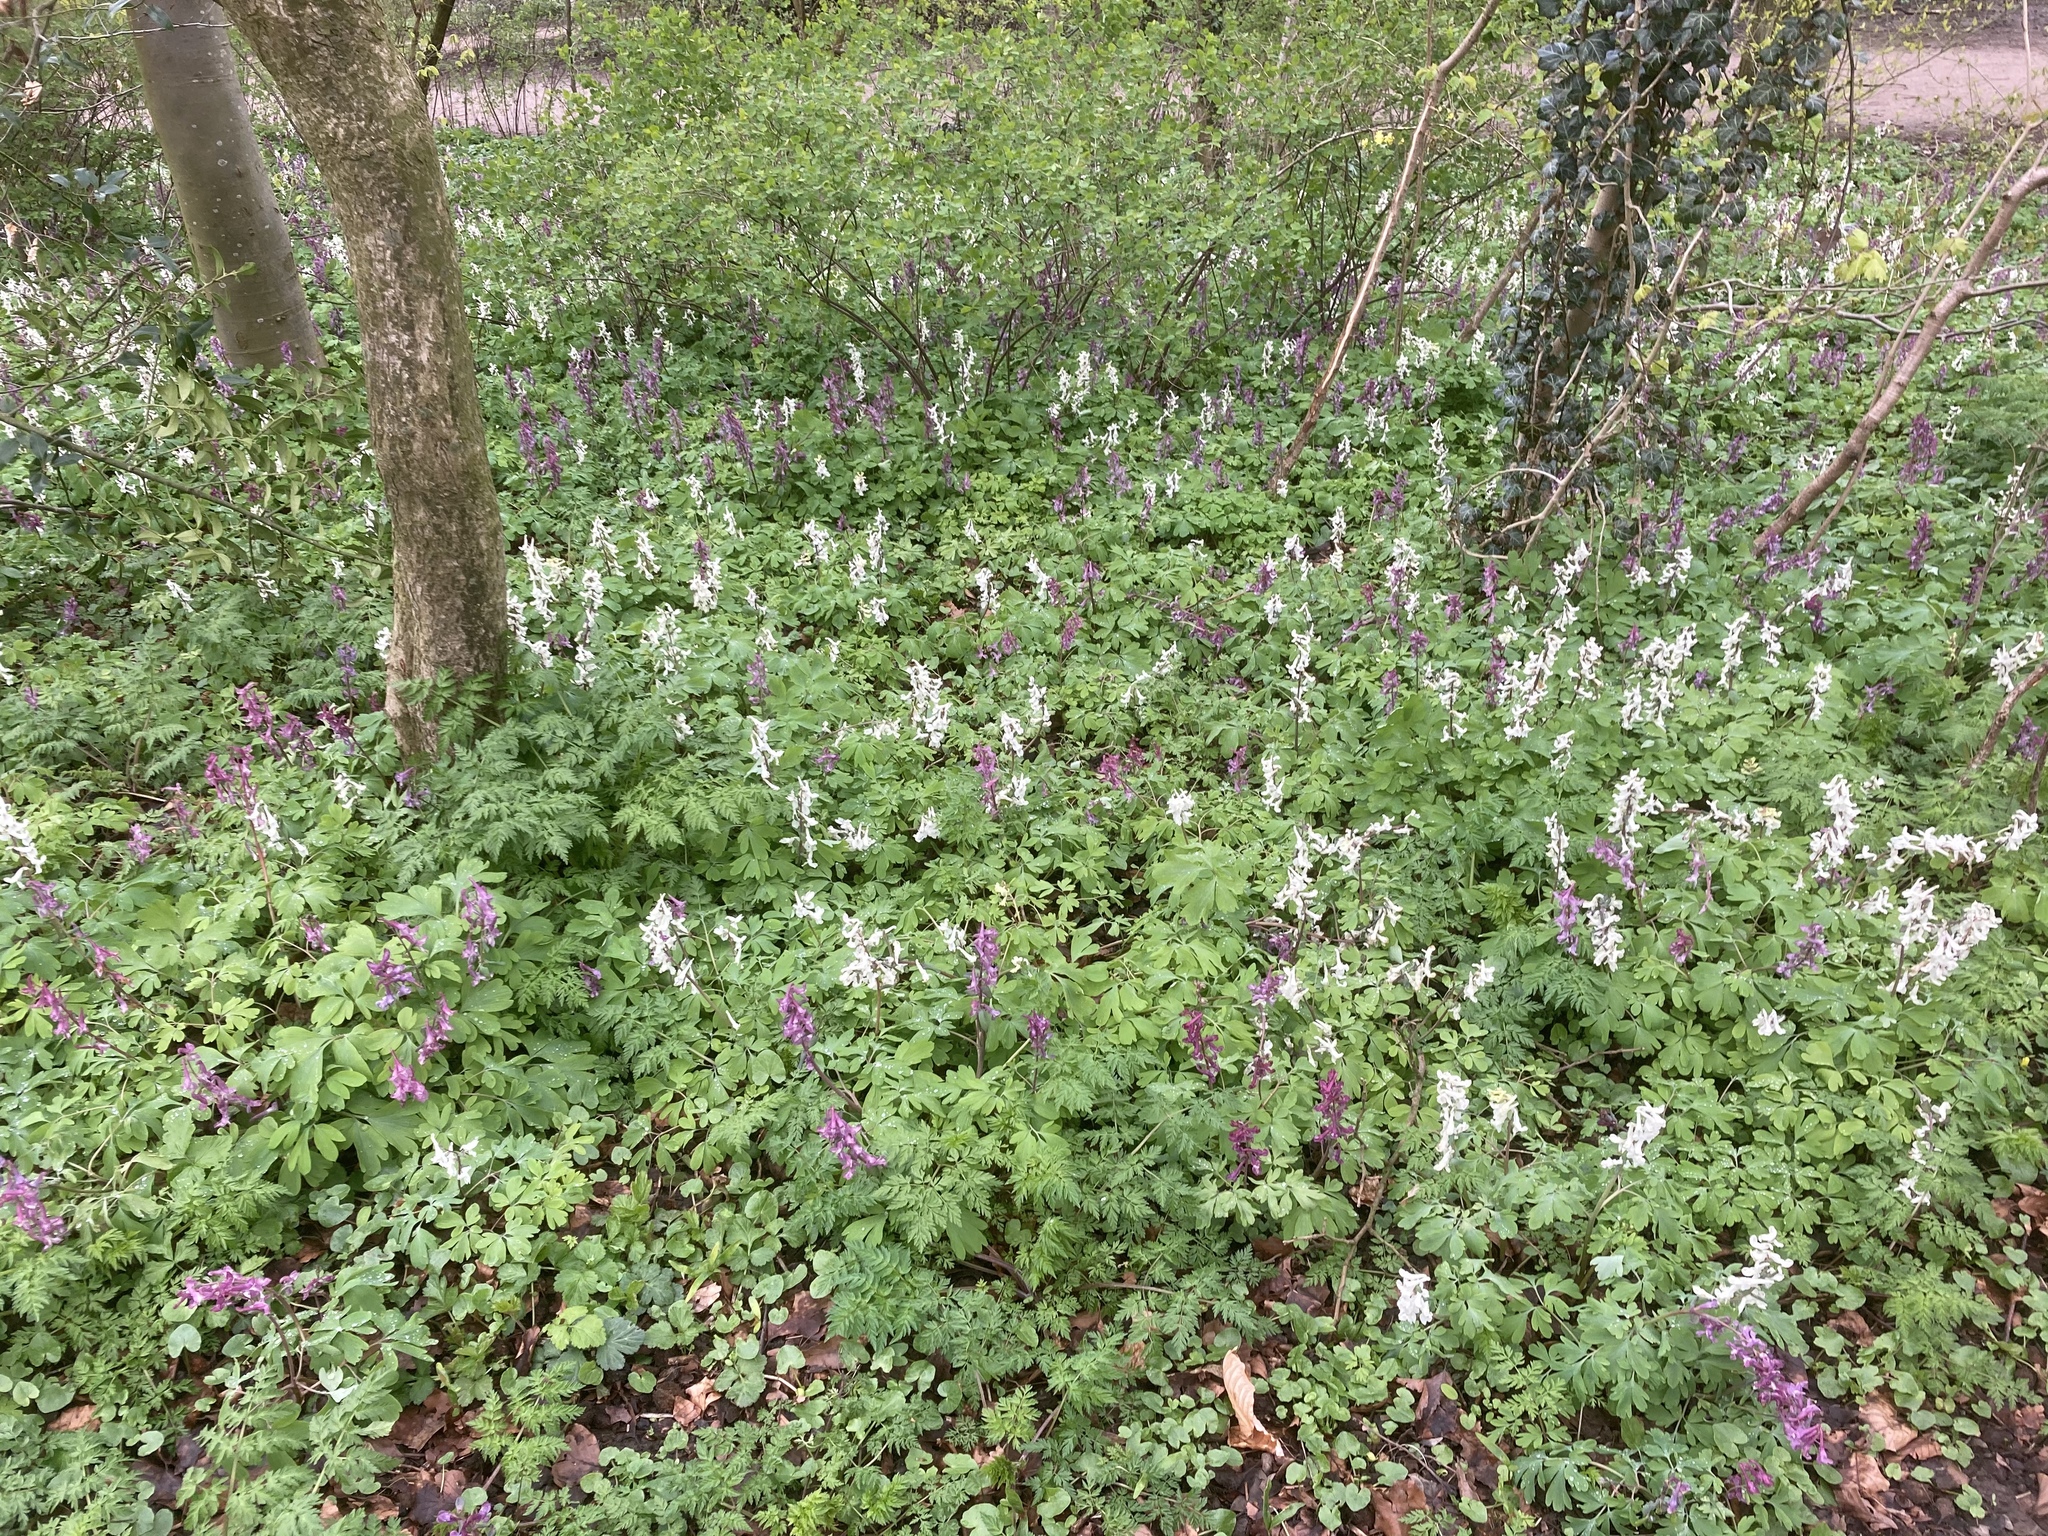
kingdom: Plantae
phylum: Tracheophyta
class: Magnoliopsida
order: Ranunculales
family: Papaveraceae
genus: Corydalis
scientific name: Corydalis cava
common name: Hollowroot
